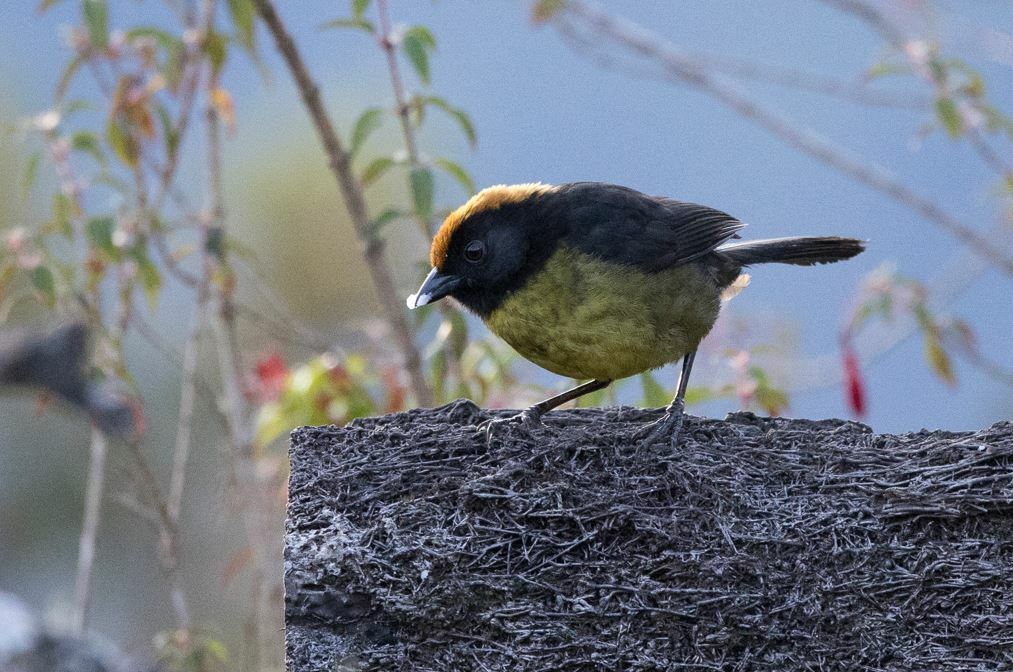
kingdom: Animalia
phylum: Chordata
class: Aves
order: Passeriformes
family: Passerellidae
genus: Atlapetes
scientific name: Atlapetes melanolaemus
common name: Grey-eared brush finch
